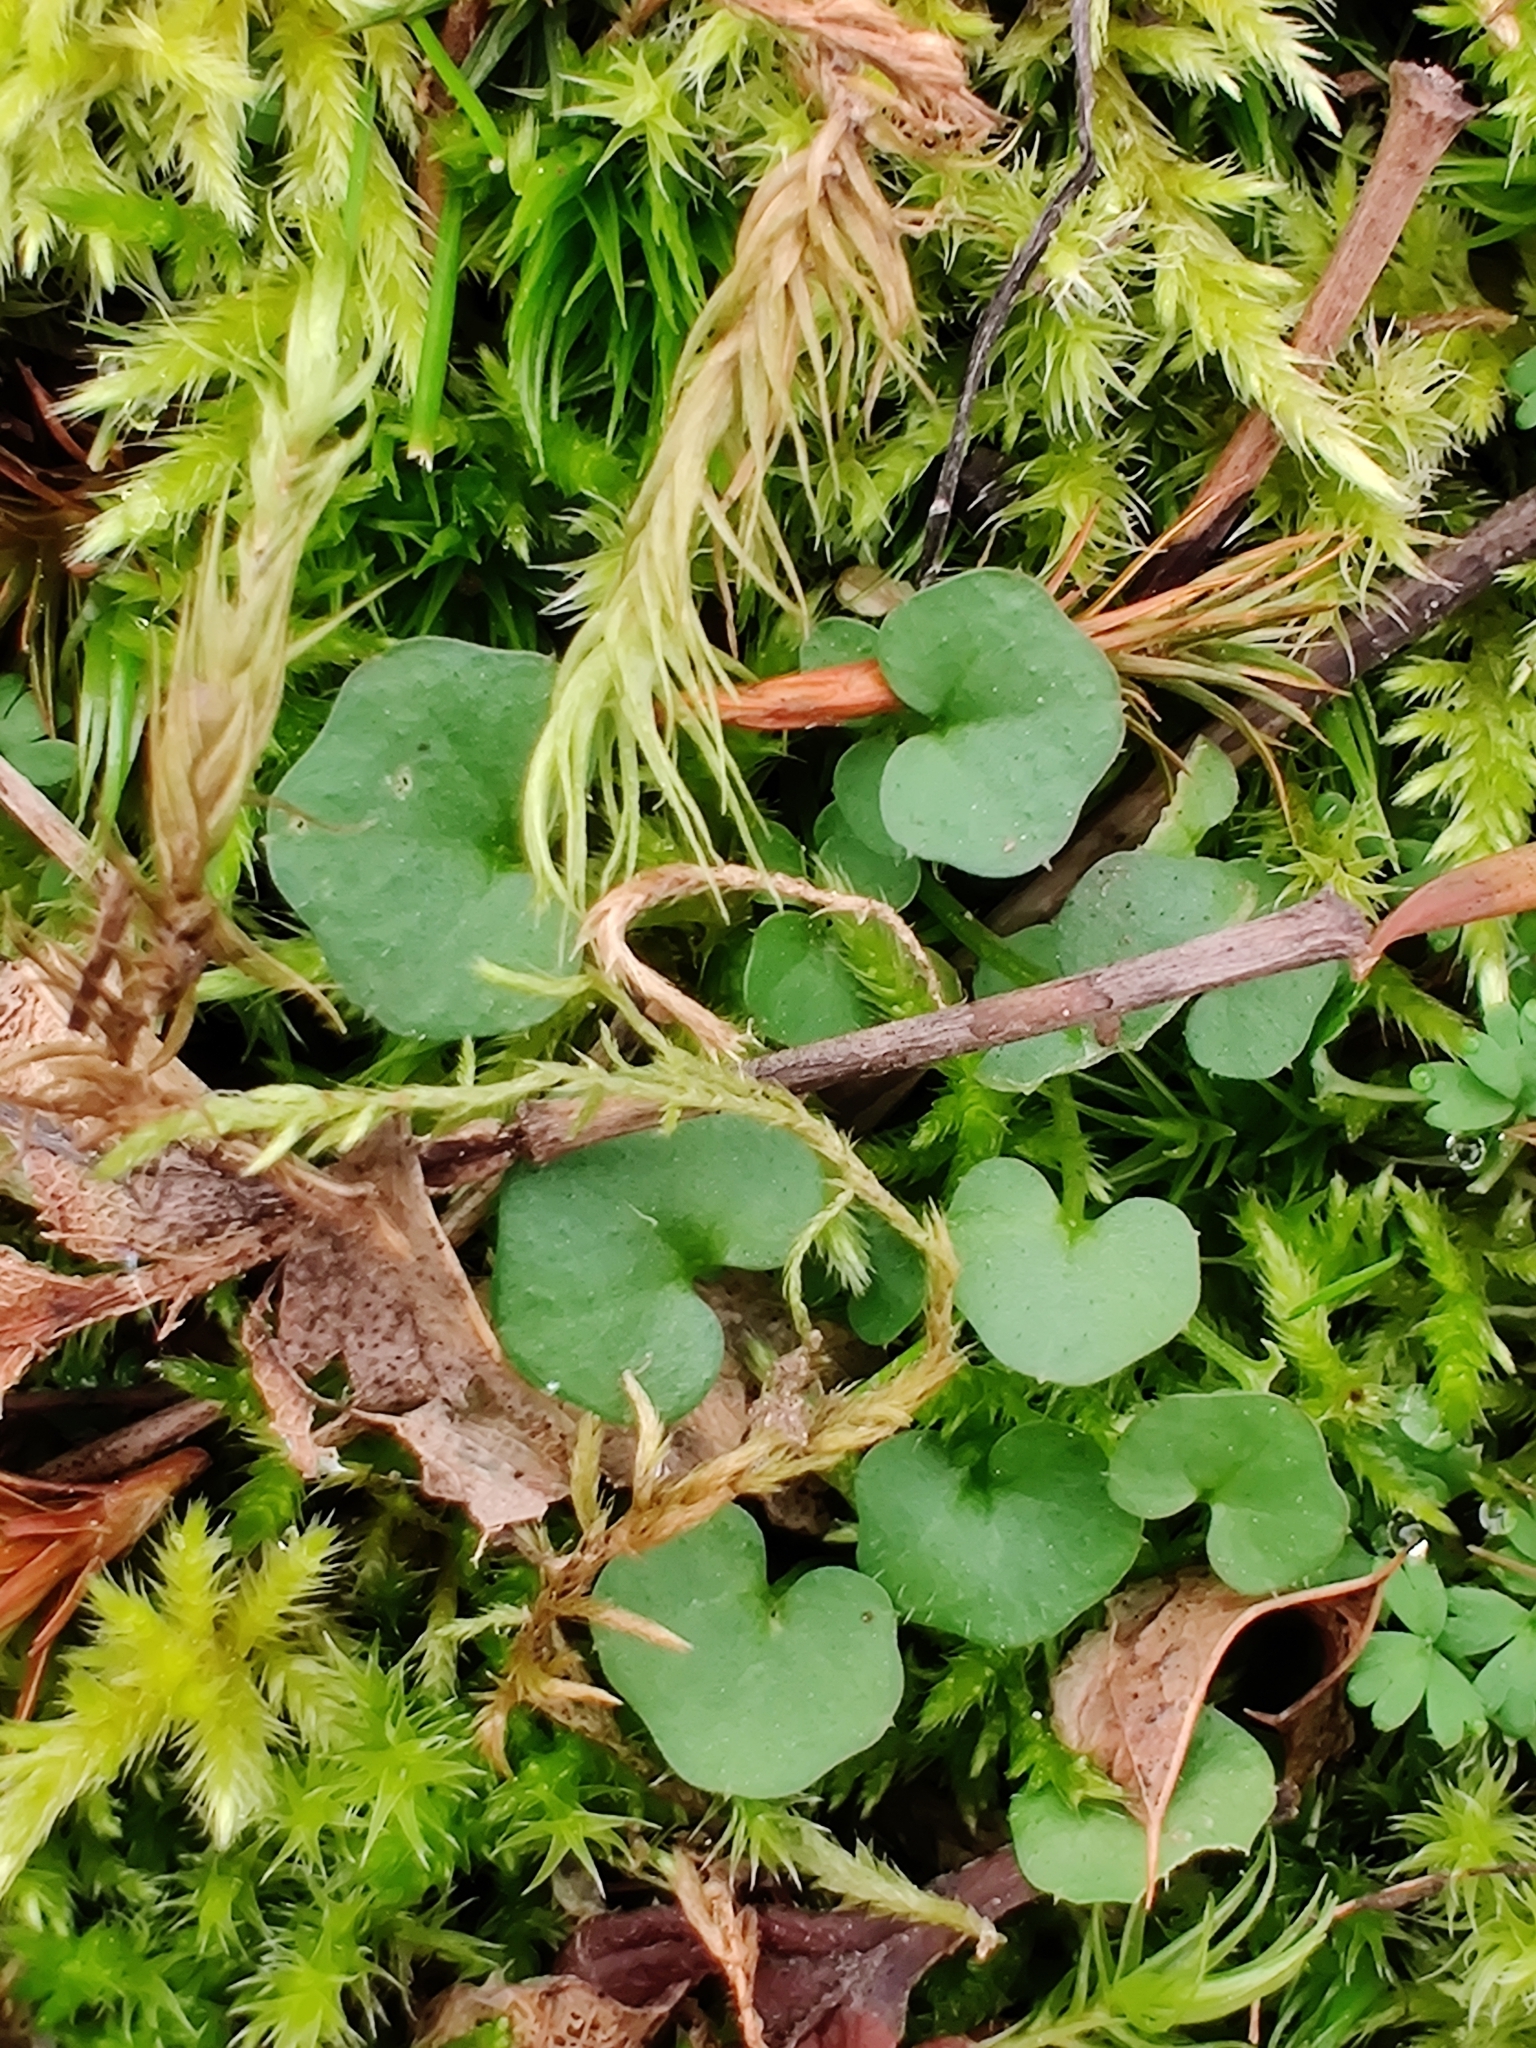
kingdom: Plantae
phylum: Tracheophyta
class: Magnoliopsida
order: Brassicales
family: Brassicaceae
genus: Cardamine
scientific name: Cardamine flexuosa
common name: Woodland bittercress
